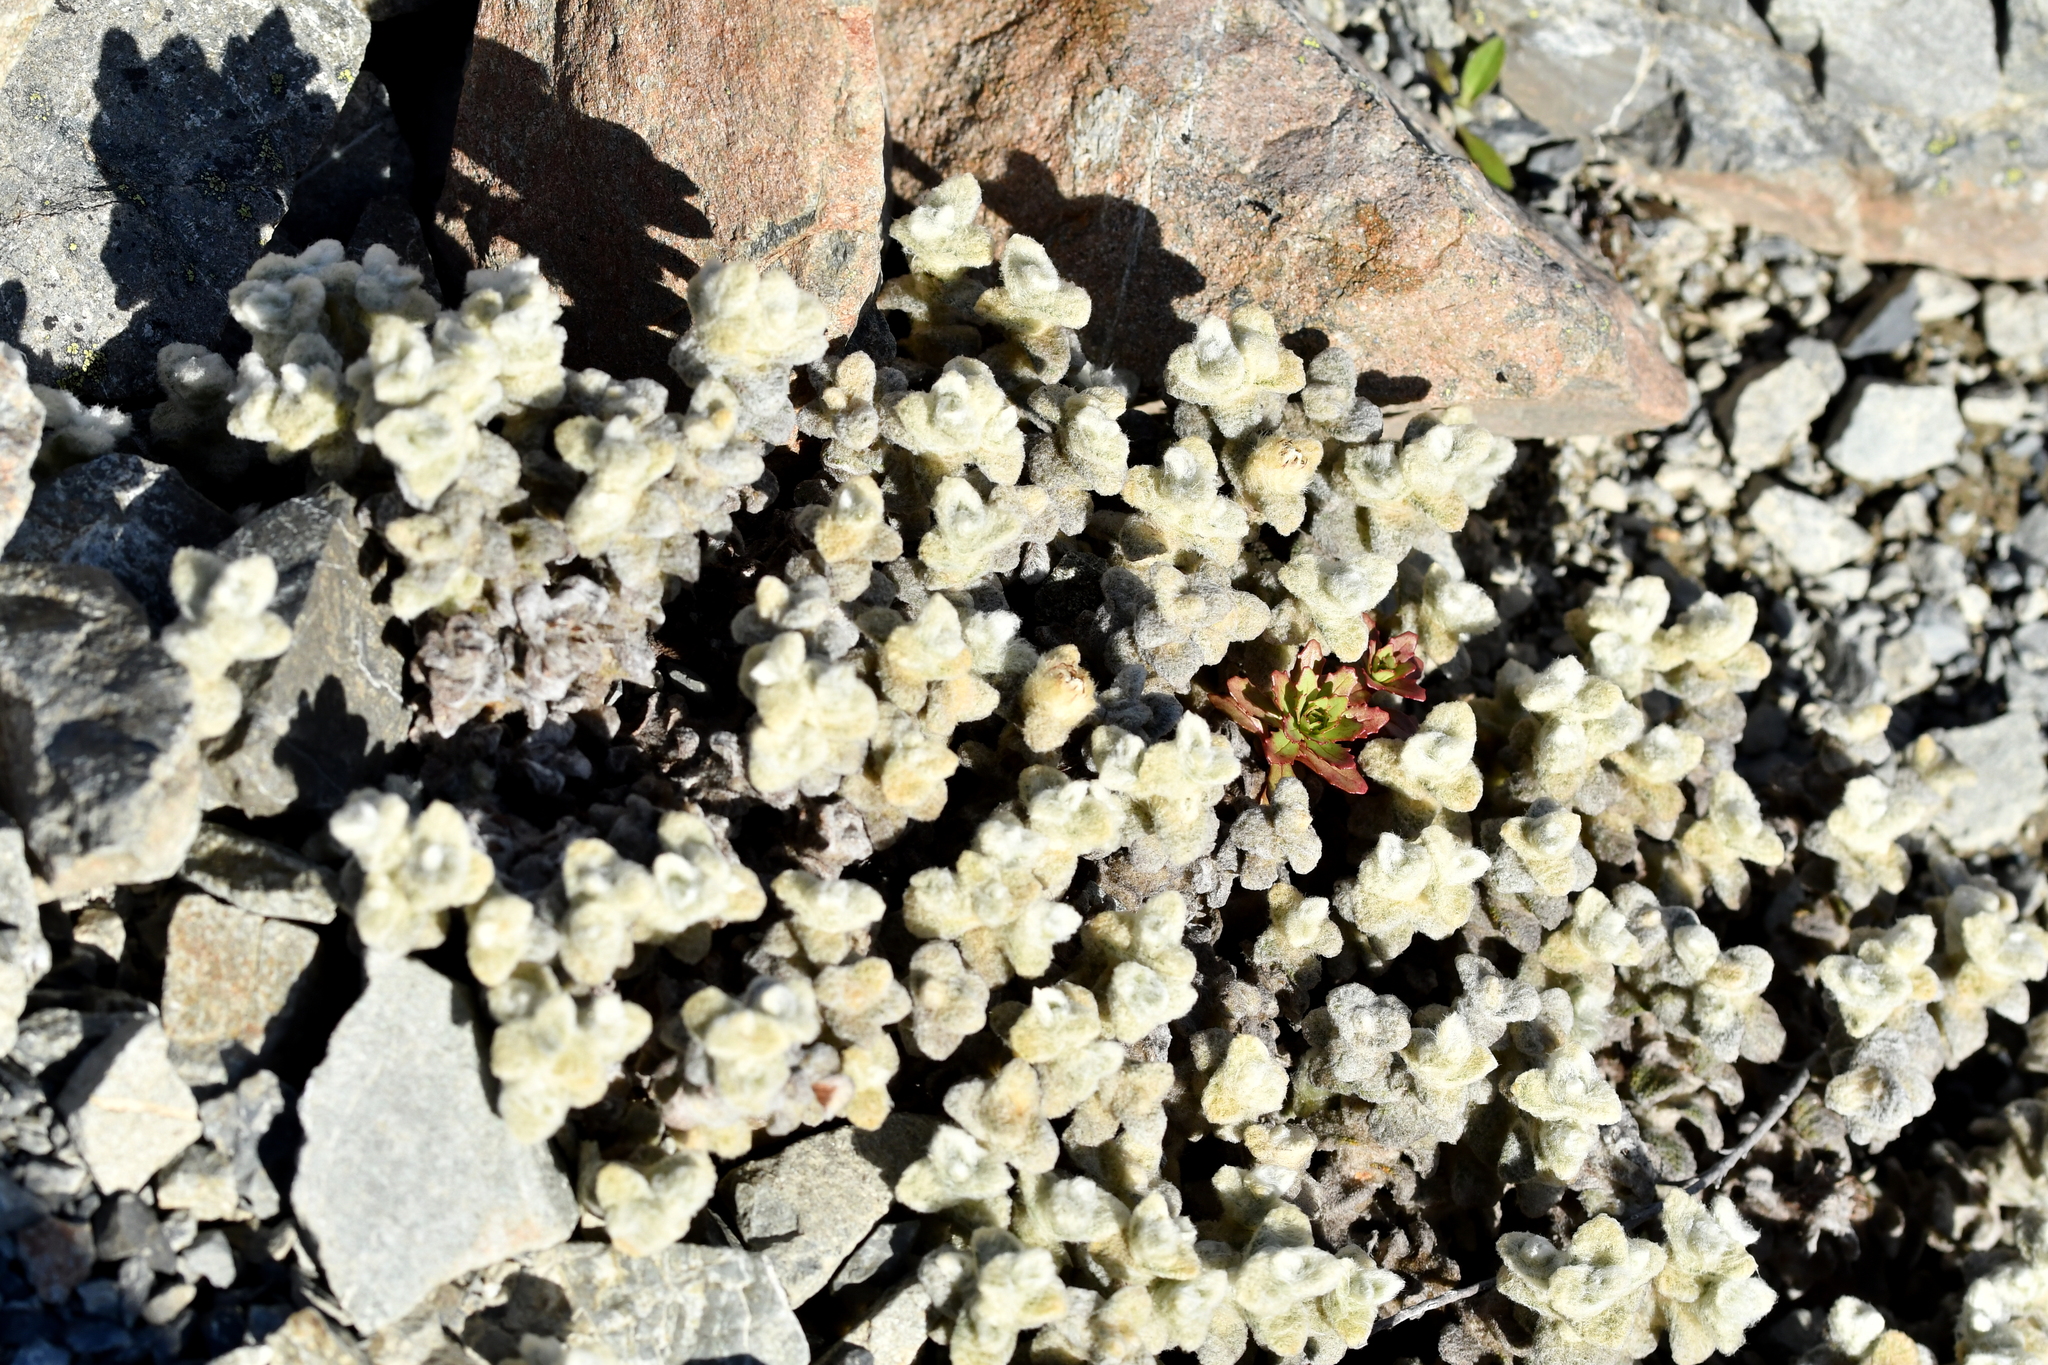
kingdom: Plantae
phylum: Tracheophyta
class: Magnoliopsida
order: Asterales
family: Asteraceae
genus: Haastia
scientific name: Haastia recurva
